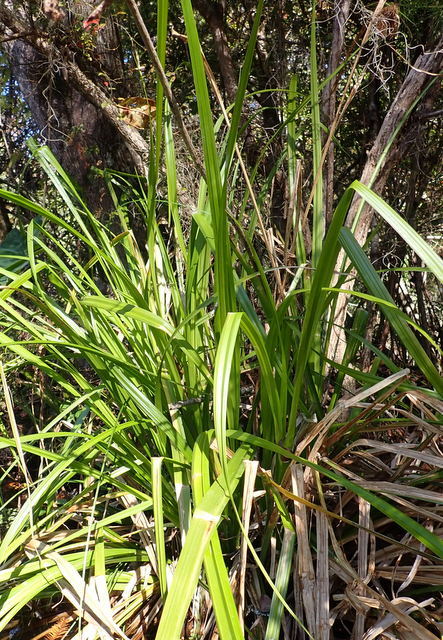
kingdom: Plantae
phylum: Tracheophyta
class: Liliopsida
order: Poales
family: Cyperaceae
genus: Carex
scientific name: Carex comosa
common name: Bristly sedge
